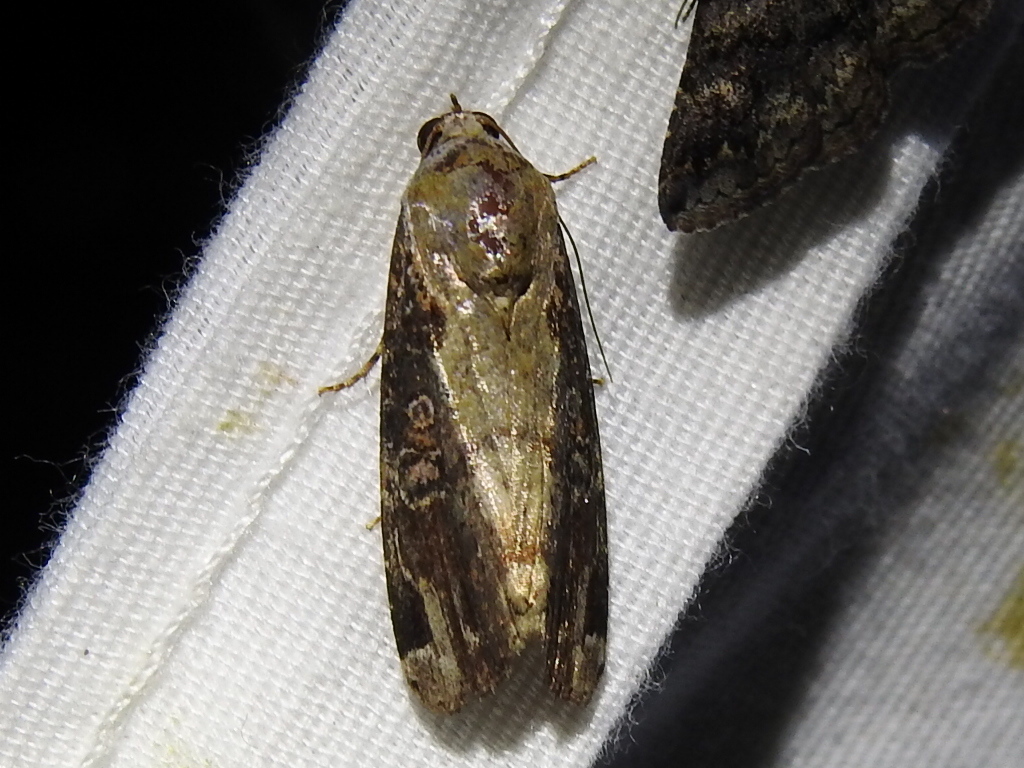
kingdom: Animalia
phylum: Arthropoda
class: Insecta
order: Lepidoptera
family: Noctuidae
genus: Magusa
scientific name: Magusa divaricata
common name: Orb narrow-winged moth
